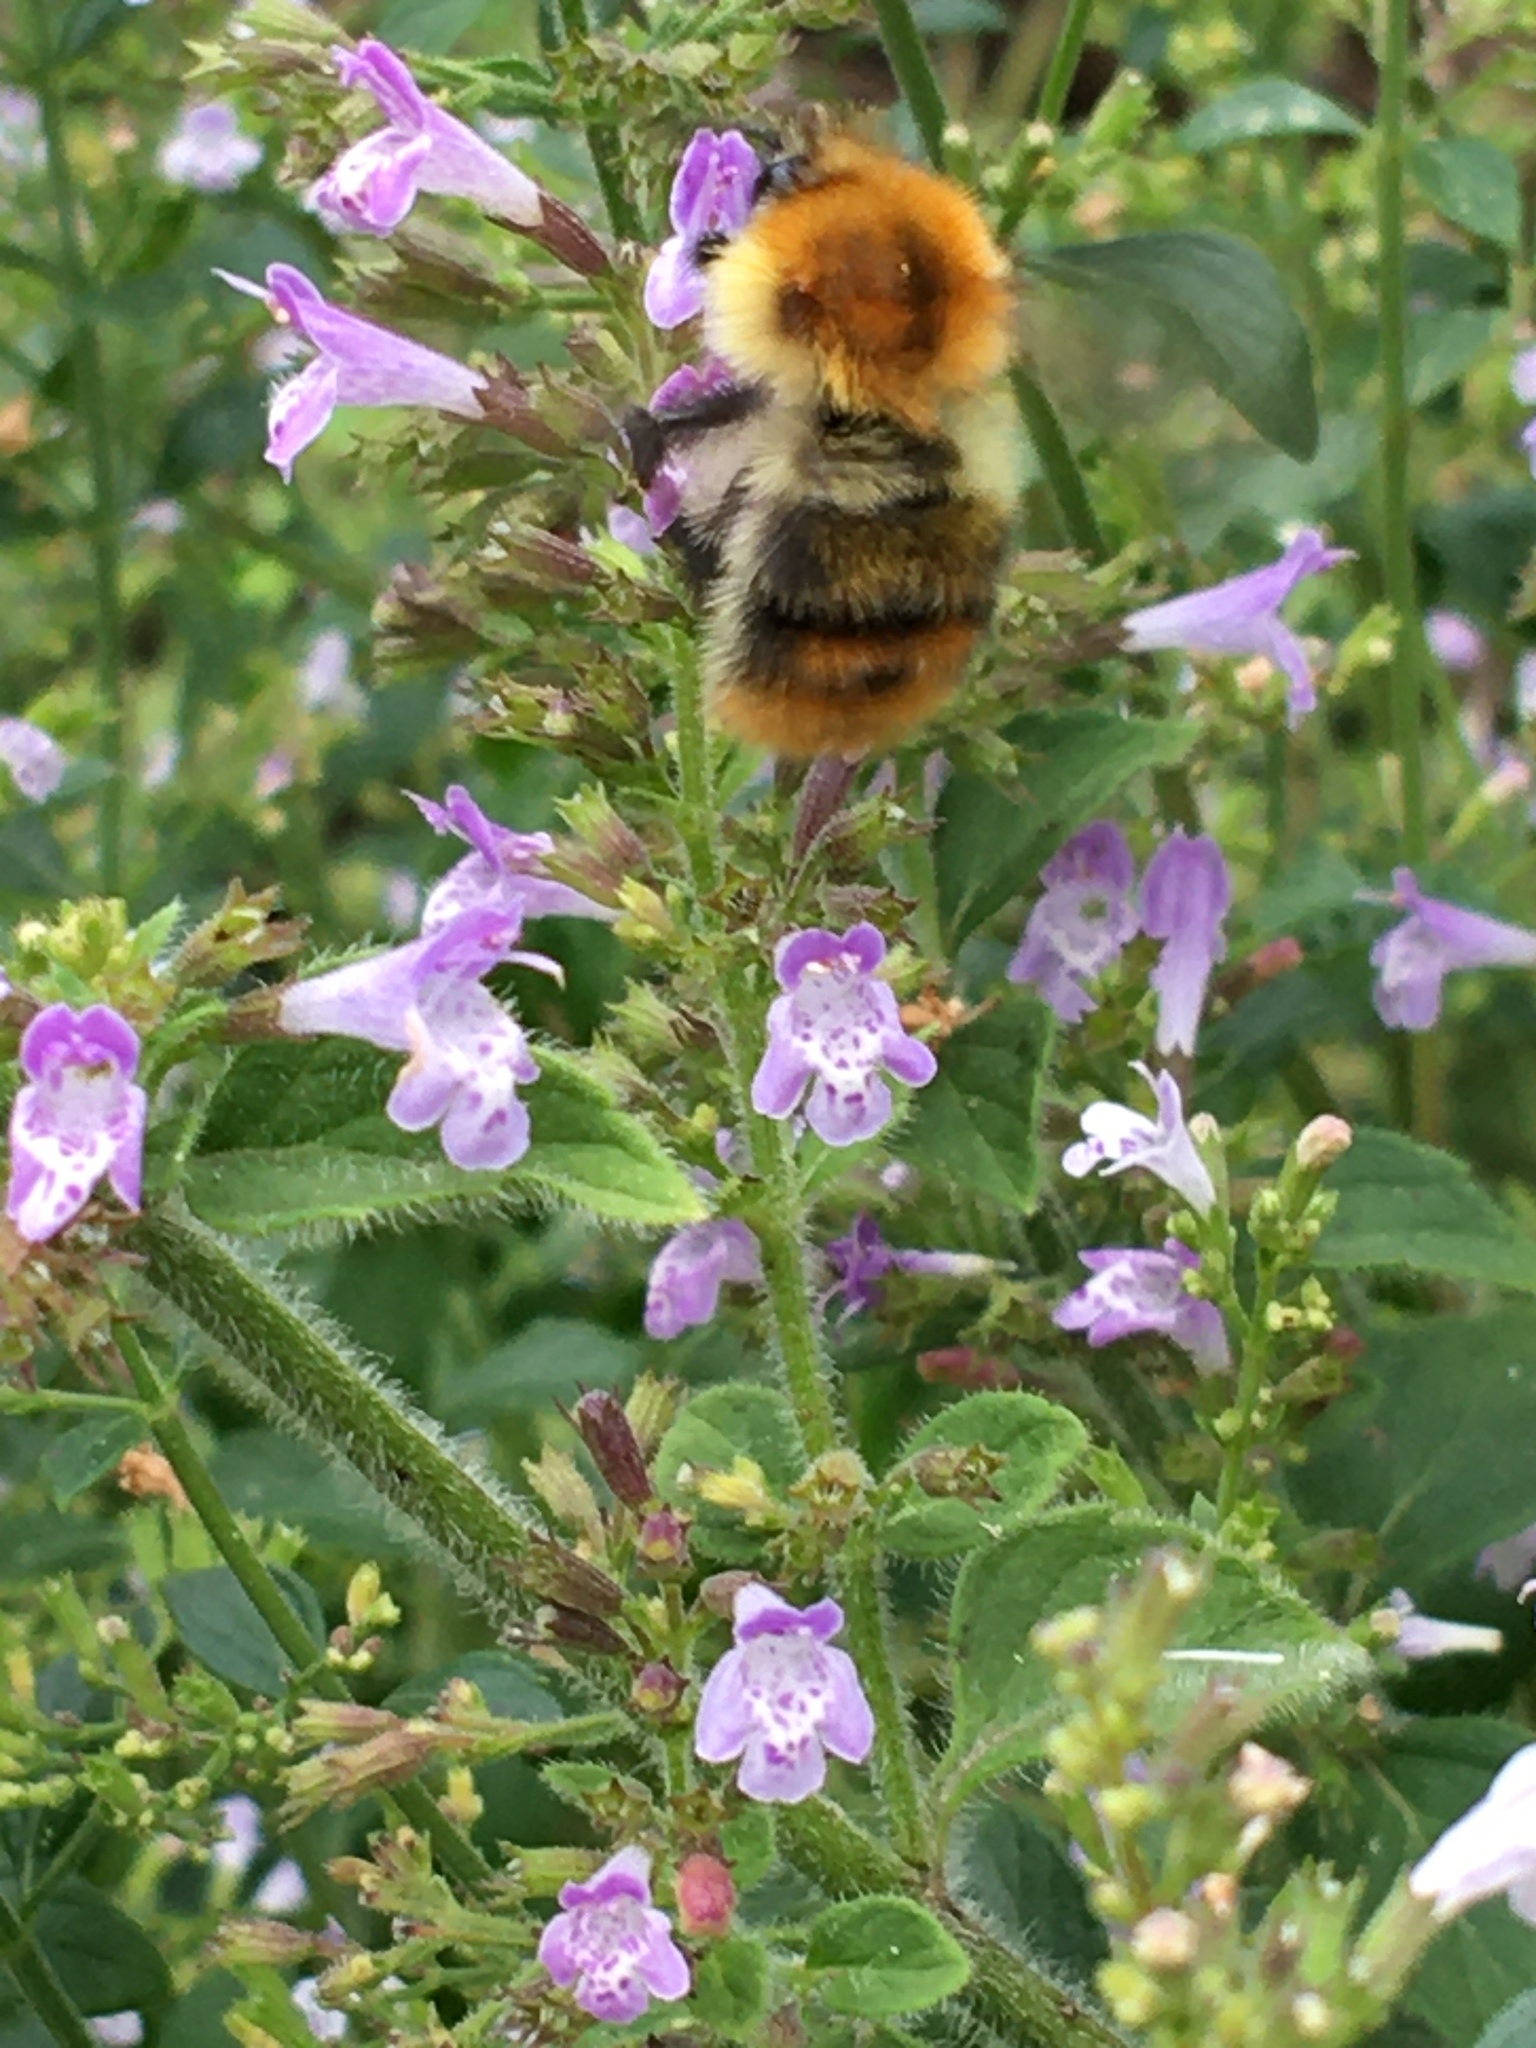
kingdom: Animalia
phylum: Arthropoda
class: Insecta
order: Hymenoptera
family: Apidae
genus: Bombus
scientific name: Bombus pascuorum
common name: Common carder bee
